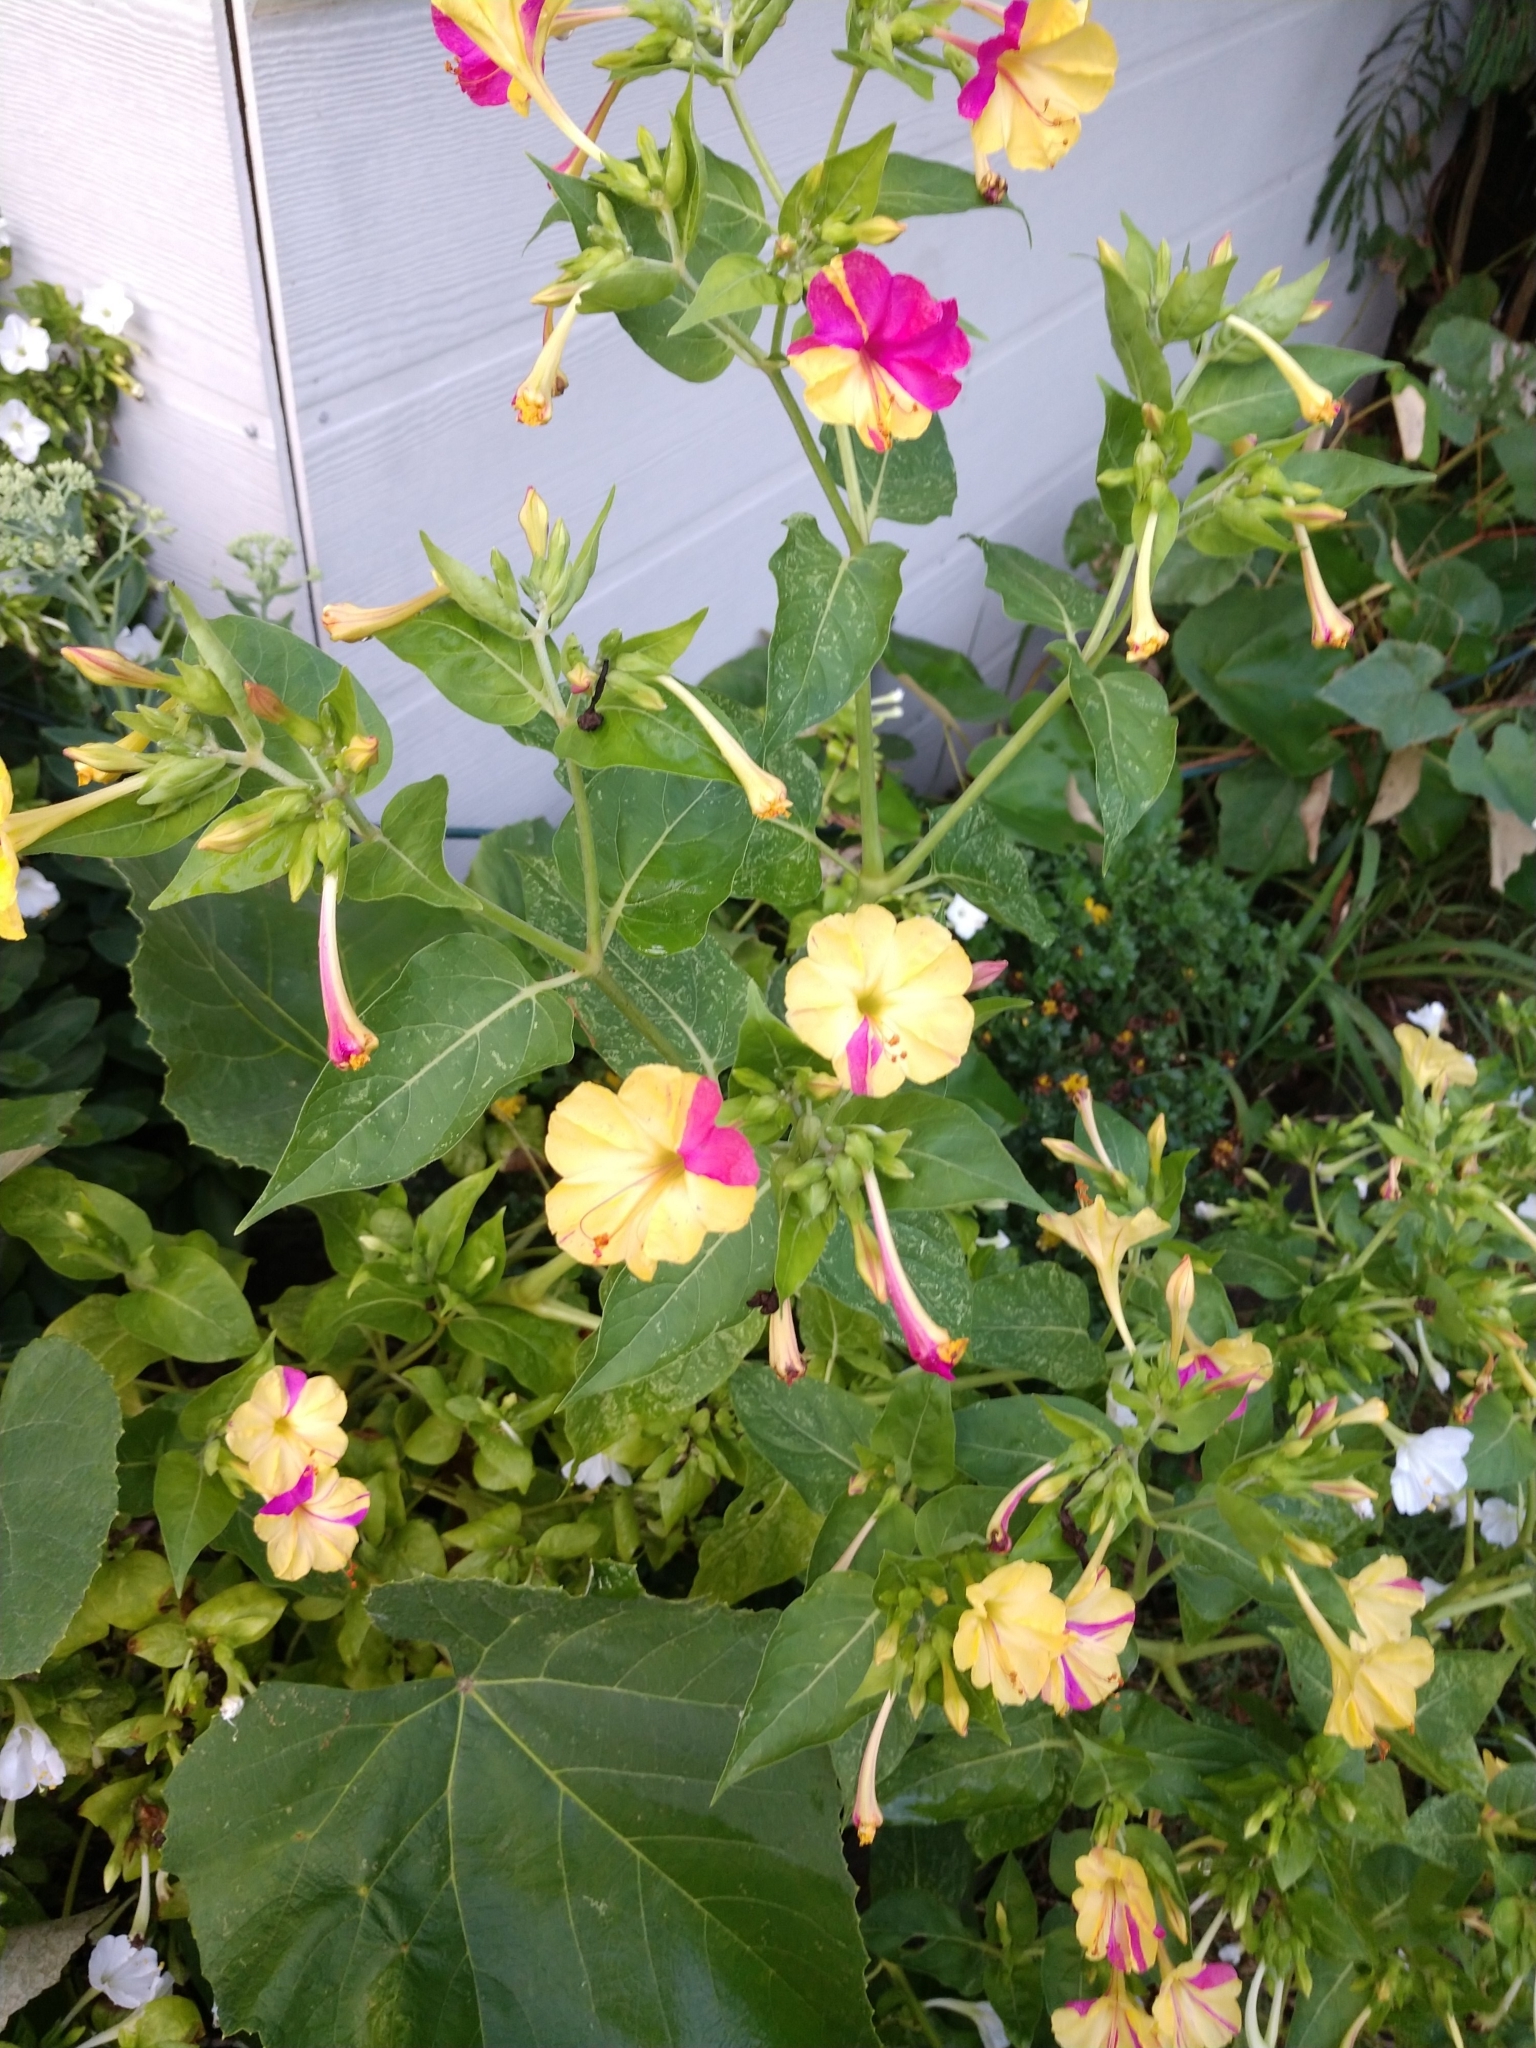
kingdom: Plantae
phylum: Tracheophyta
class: Magnoliopsida
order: Caryophyllales
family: Nyctaginaceae
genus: Mirabilis
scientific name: Mirabilis jalapa
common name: Marvel-of-peru
